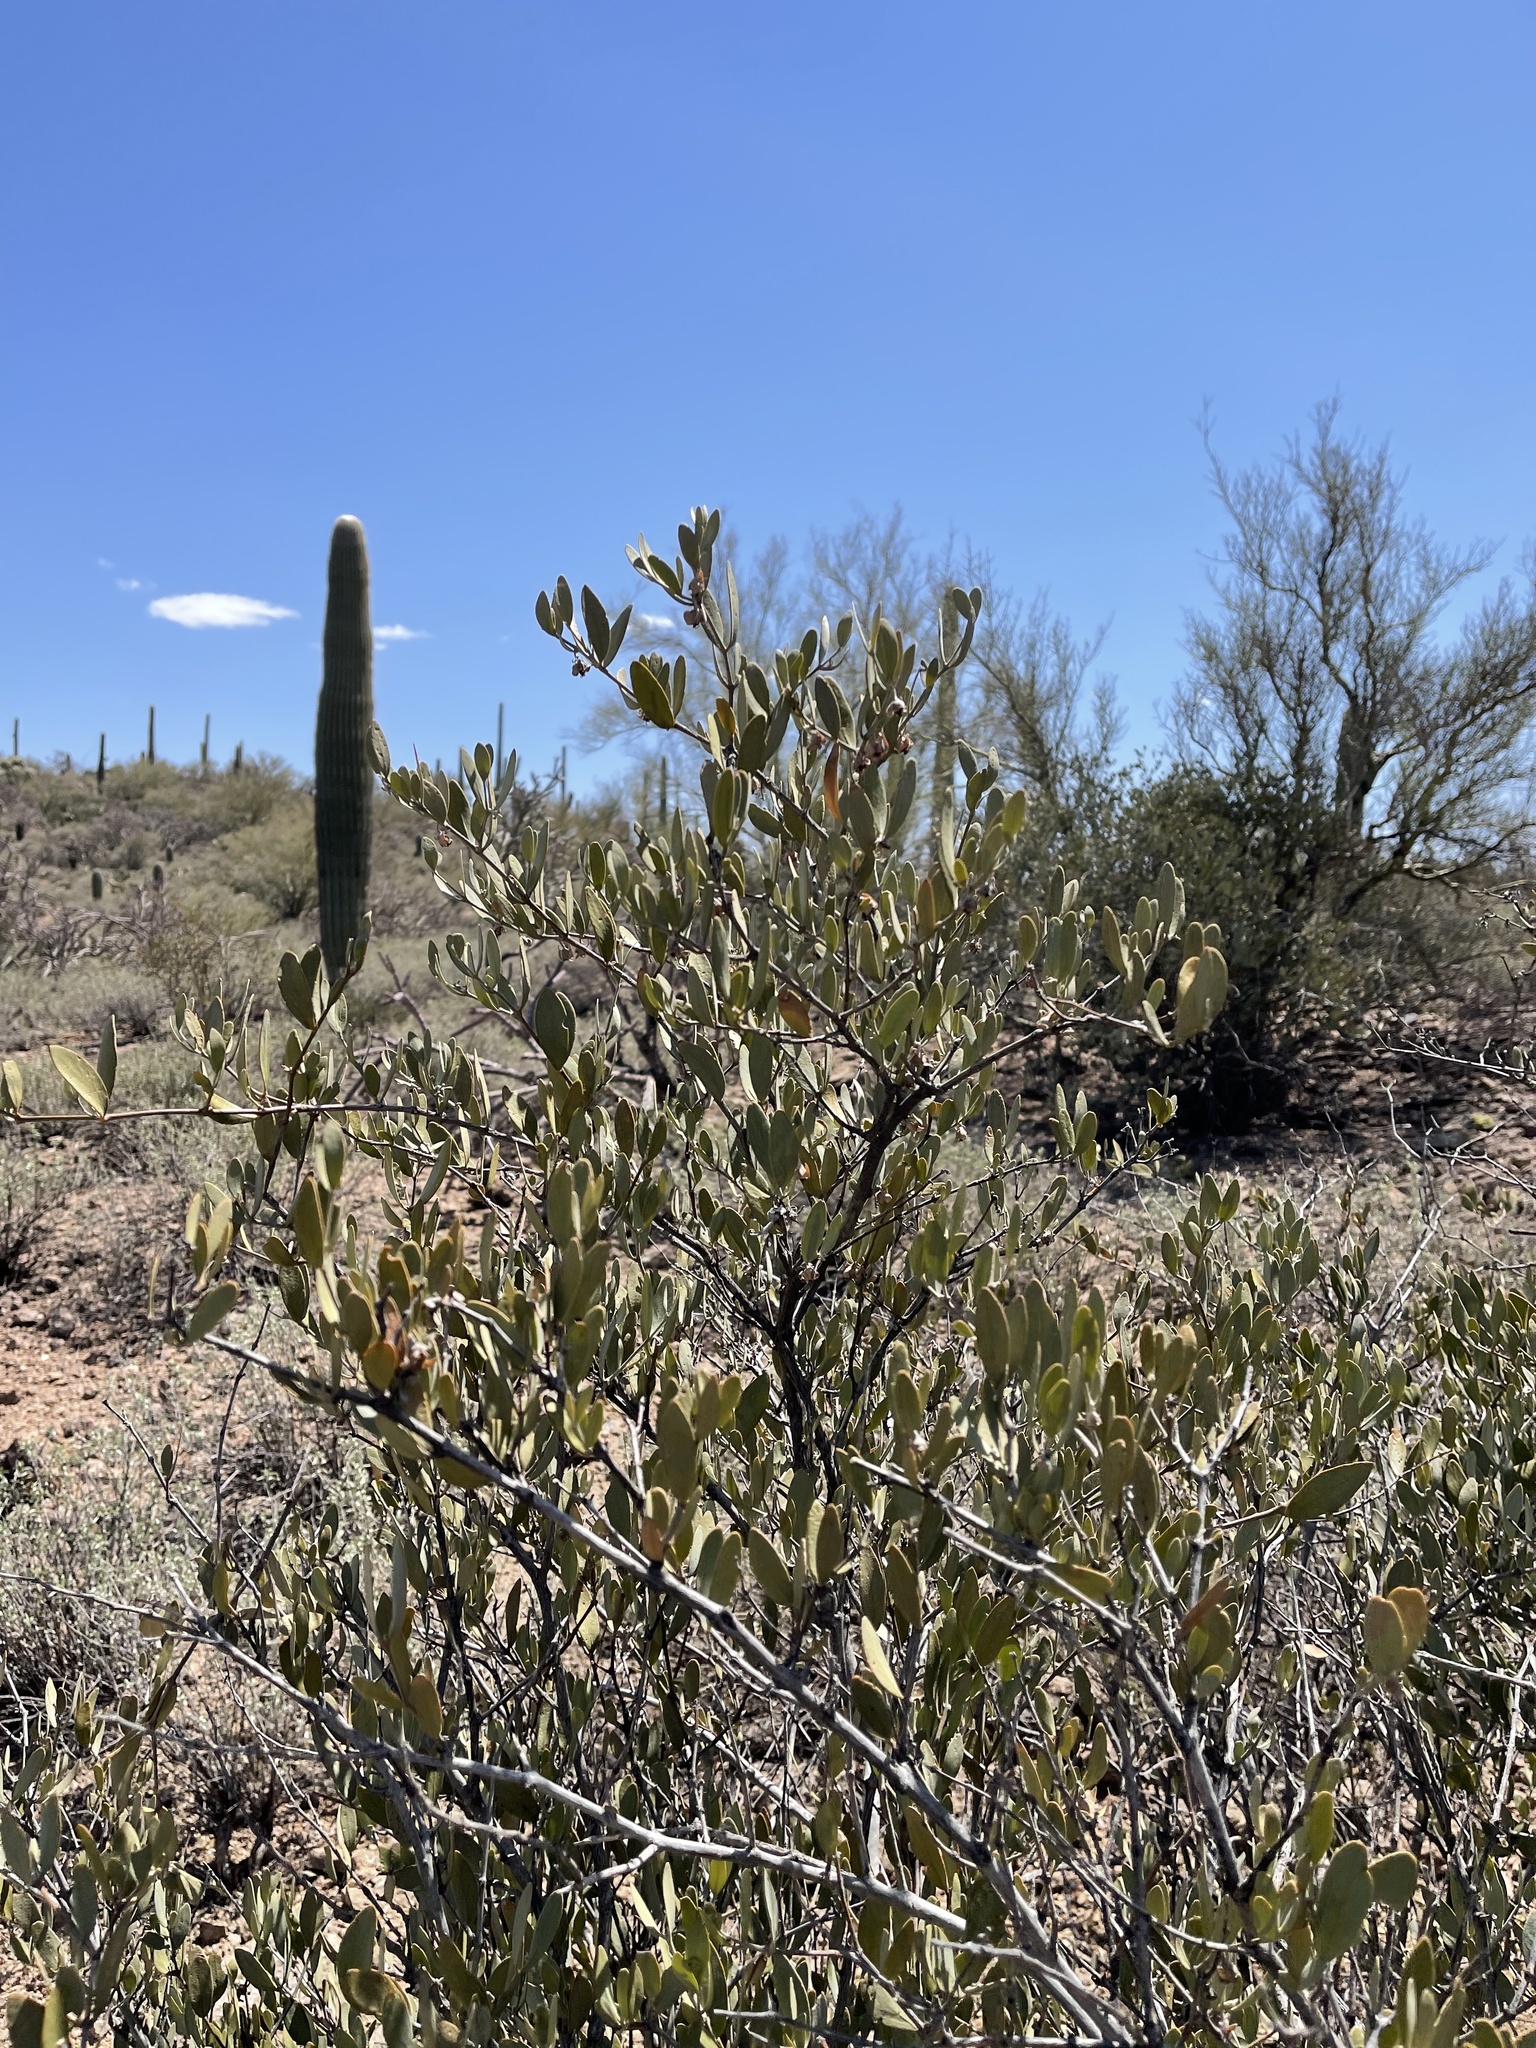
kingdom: Plantae
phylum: Tracheophyta
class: Magnoliopsida
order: Caryophyllales
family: Simmondsiaceae
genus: Simmondsia
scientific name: Simmondsia chinensis
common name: Jojoba
